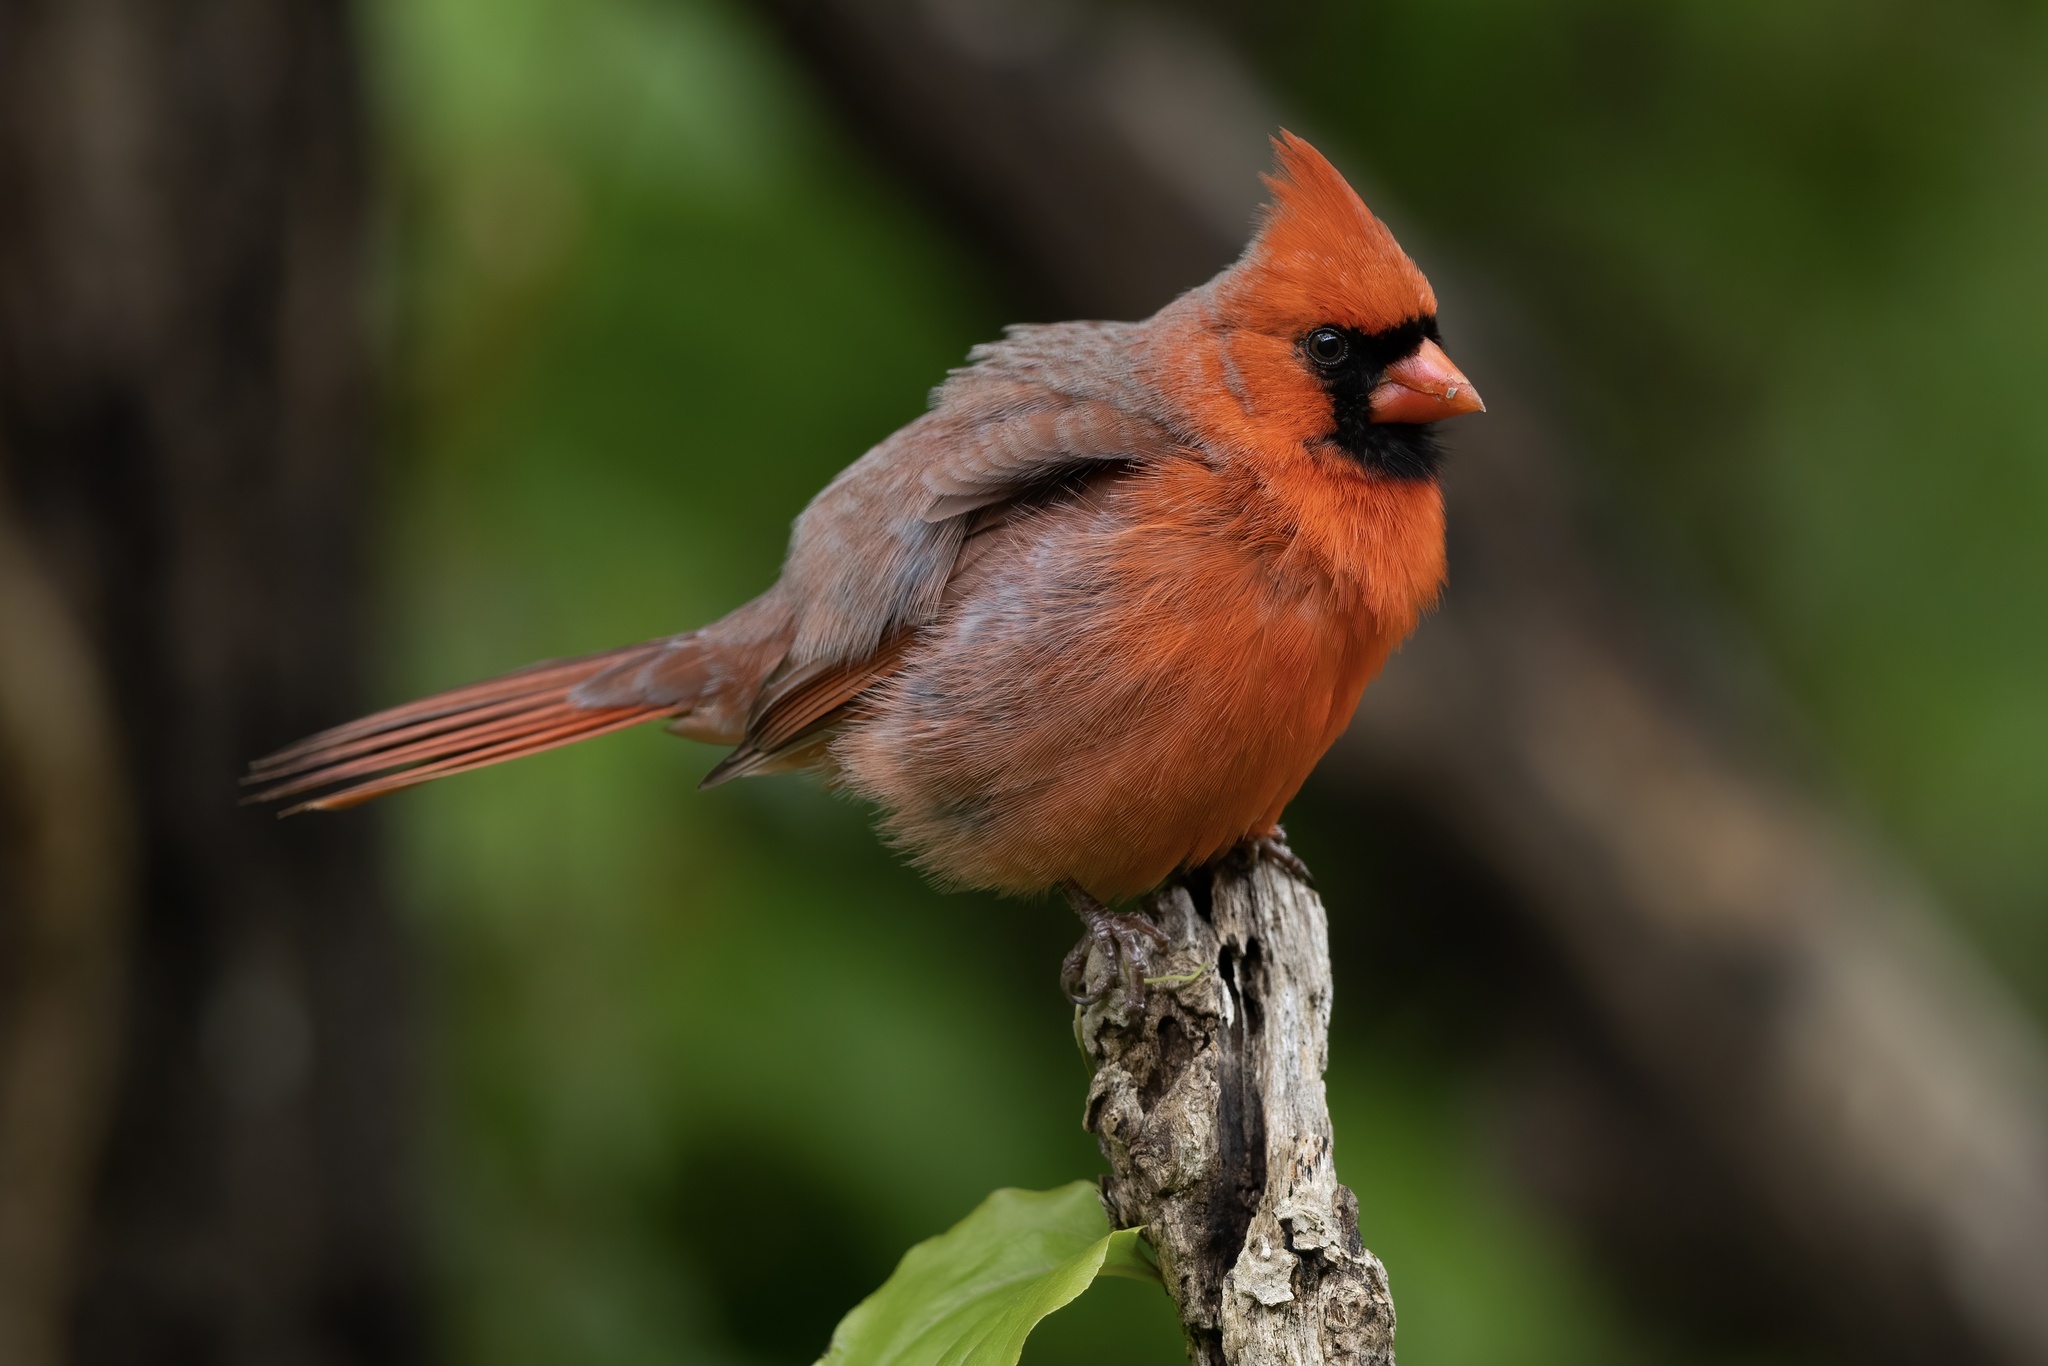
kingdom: Animalia
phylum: Chordata
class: Aves
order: Passeriformes
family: Cardinalidae
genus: Cardinalis
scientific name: Cardinalis cardinalis
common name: Northern cardinal
